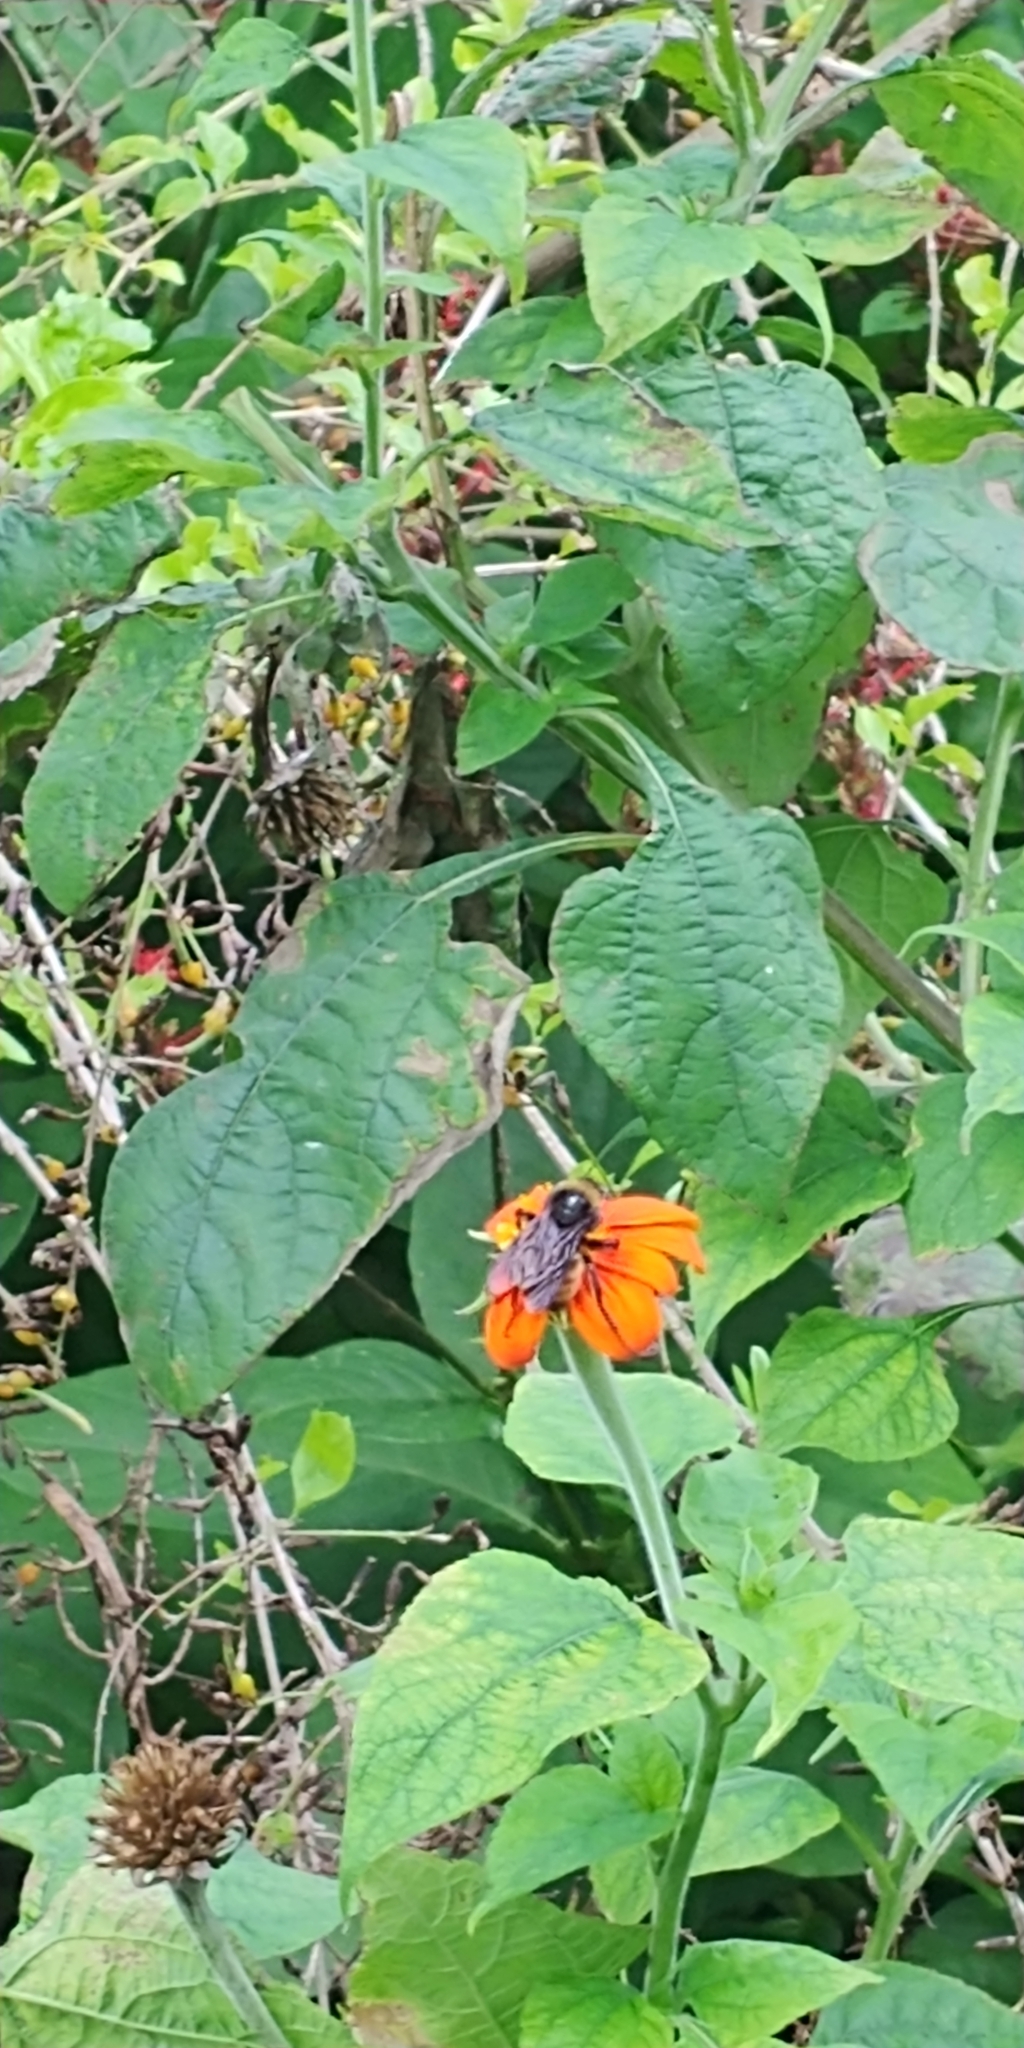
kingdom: Animalia
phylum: Arthropoda
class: Insecta
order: Hymenoptera
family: Apidae
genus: Bombus
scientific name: Bombus pensylvanicus
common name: Bumble bee
